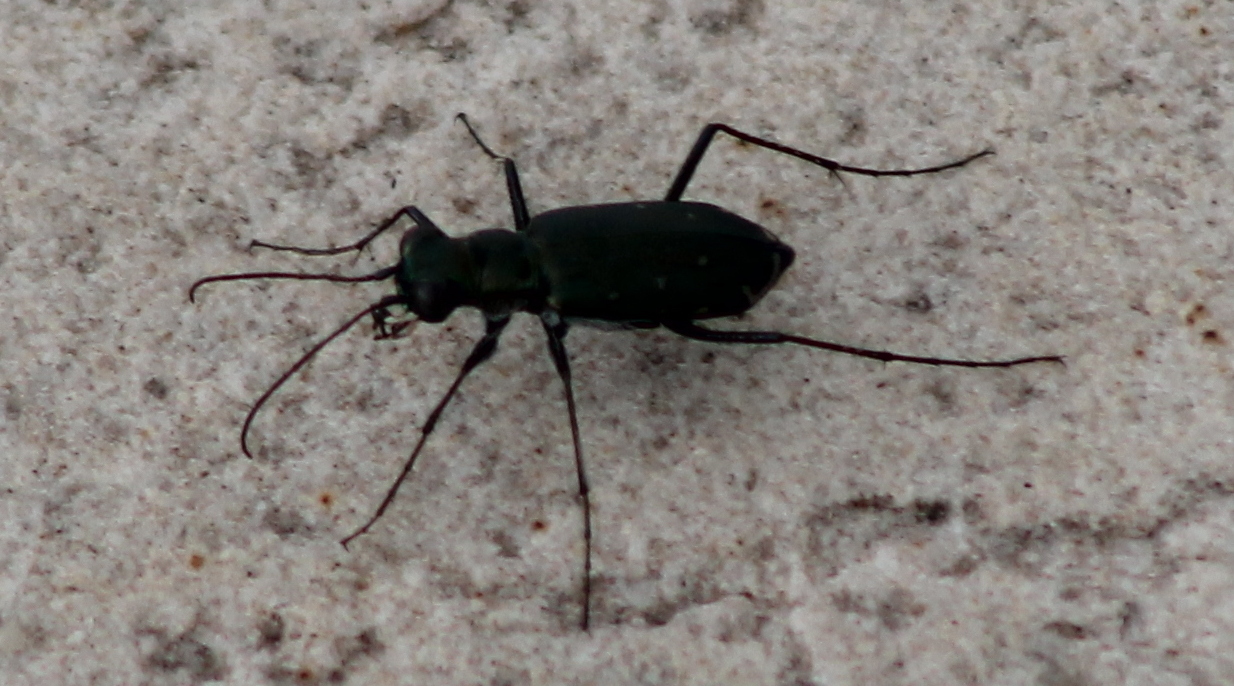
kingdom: Animalia
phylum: Arthropoda
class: Insecta
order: Coleoptera
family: Carabidae
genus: Cicindela
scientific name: Cicindela punctulata
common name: Punctured tiger beetle
